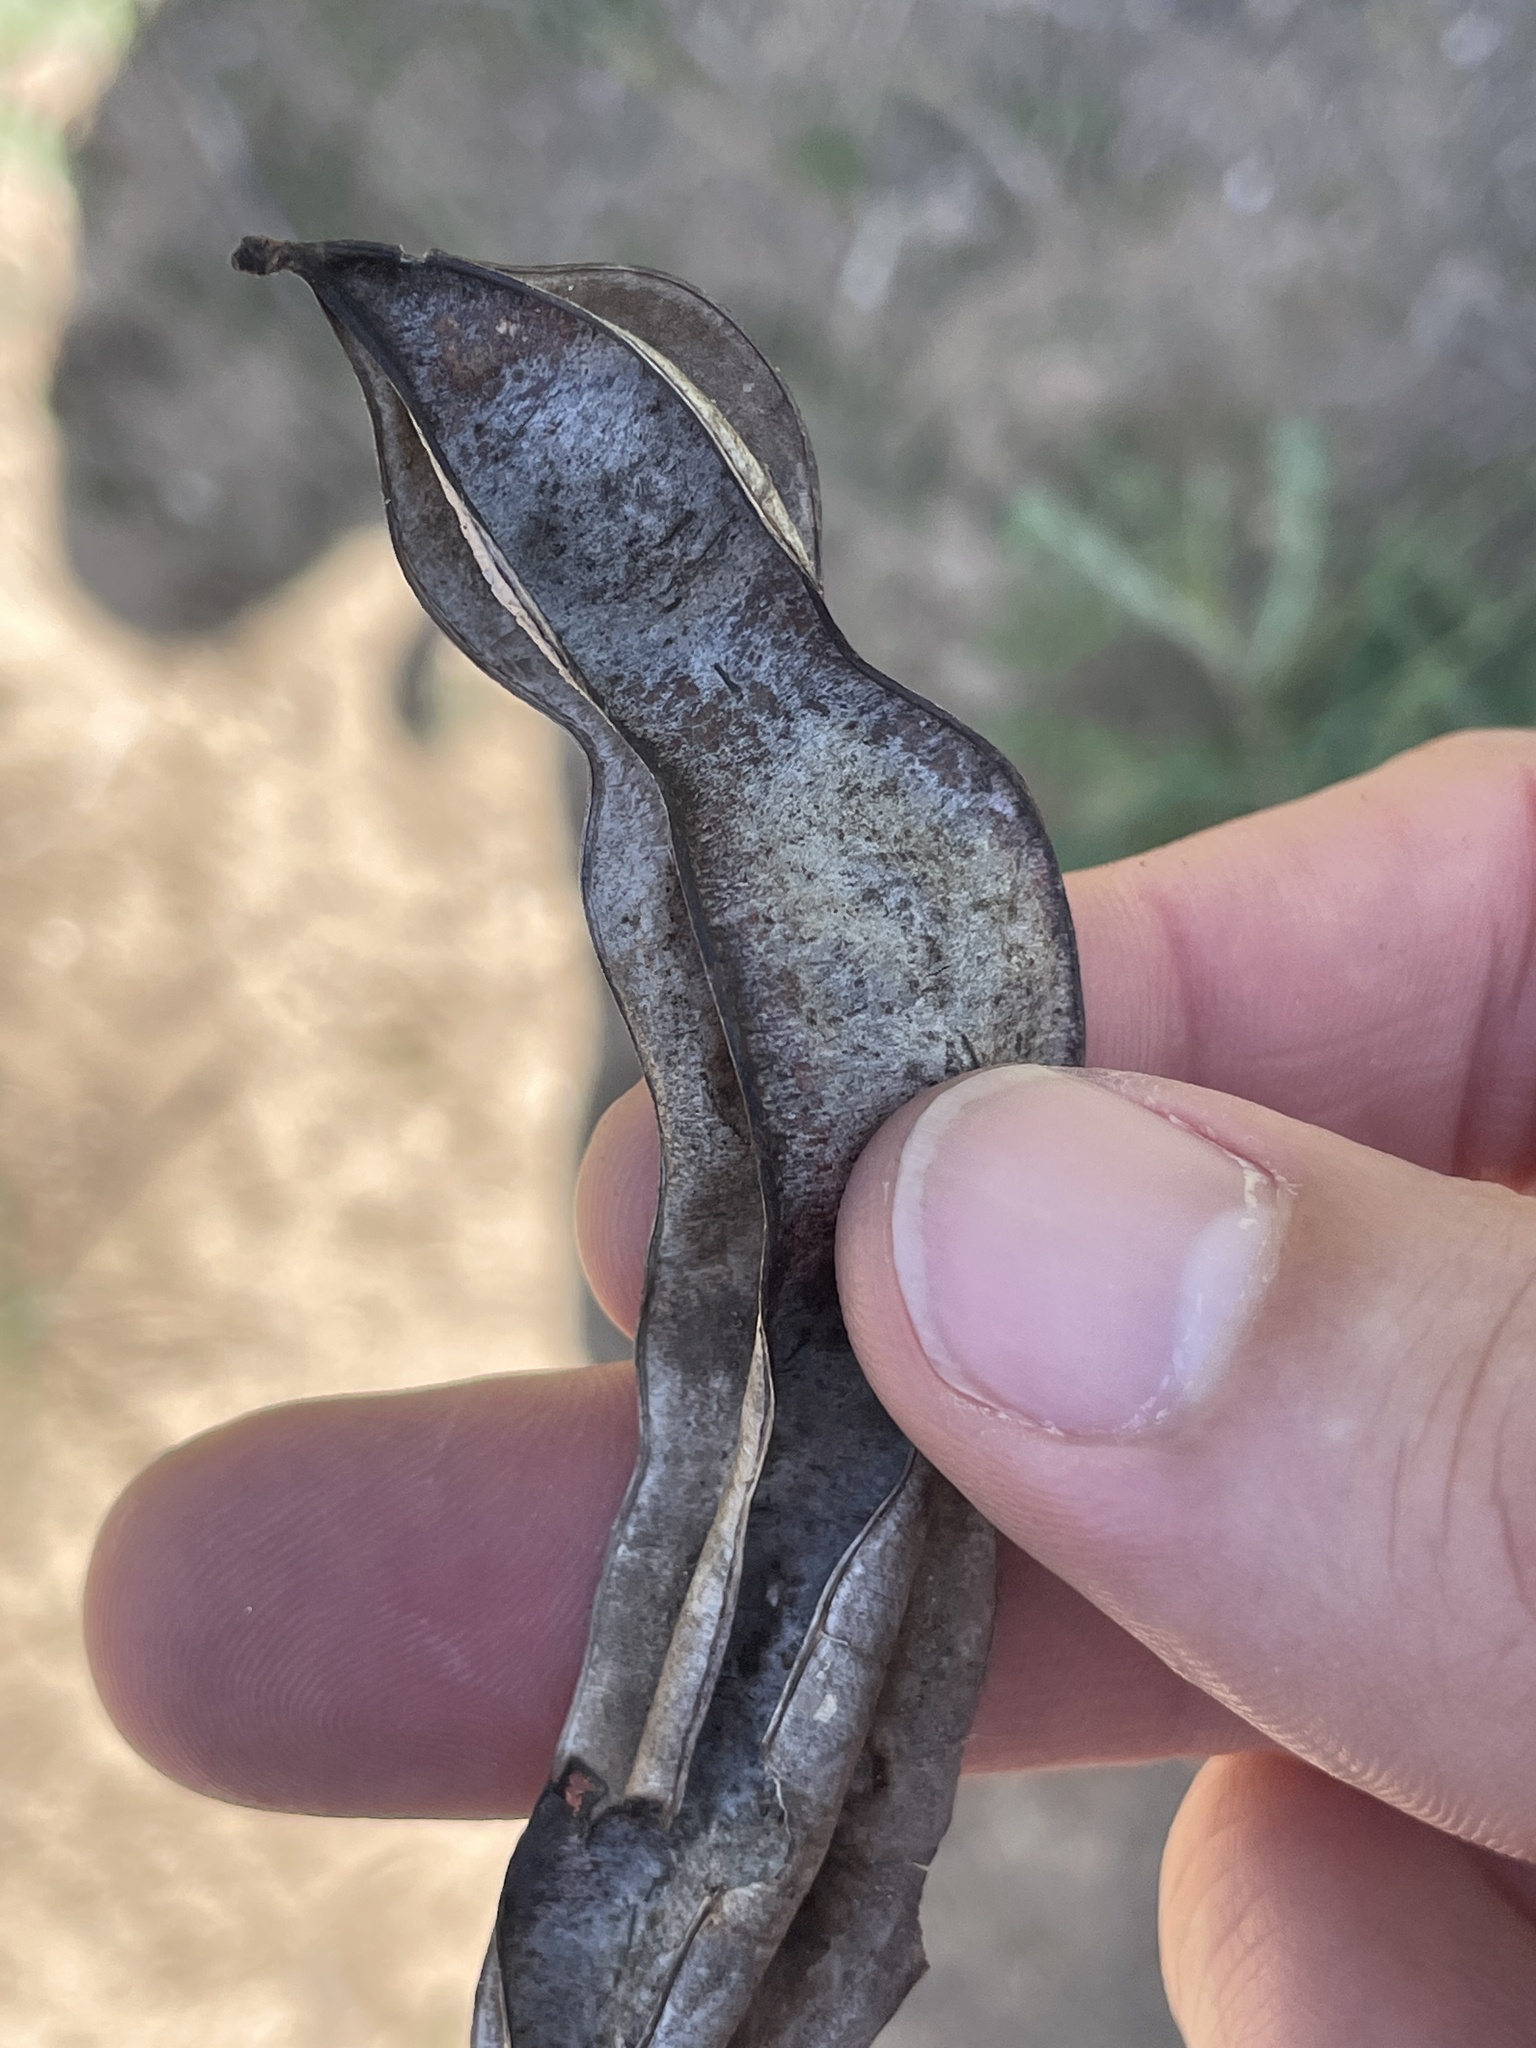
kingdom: Plantae
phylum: Tracheophyta
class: Magnoliopsida
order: Fabales
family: Fabaceae
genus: Senegalia
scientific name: Senegalia roemeriana
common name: Roemer's acacia
